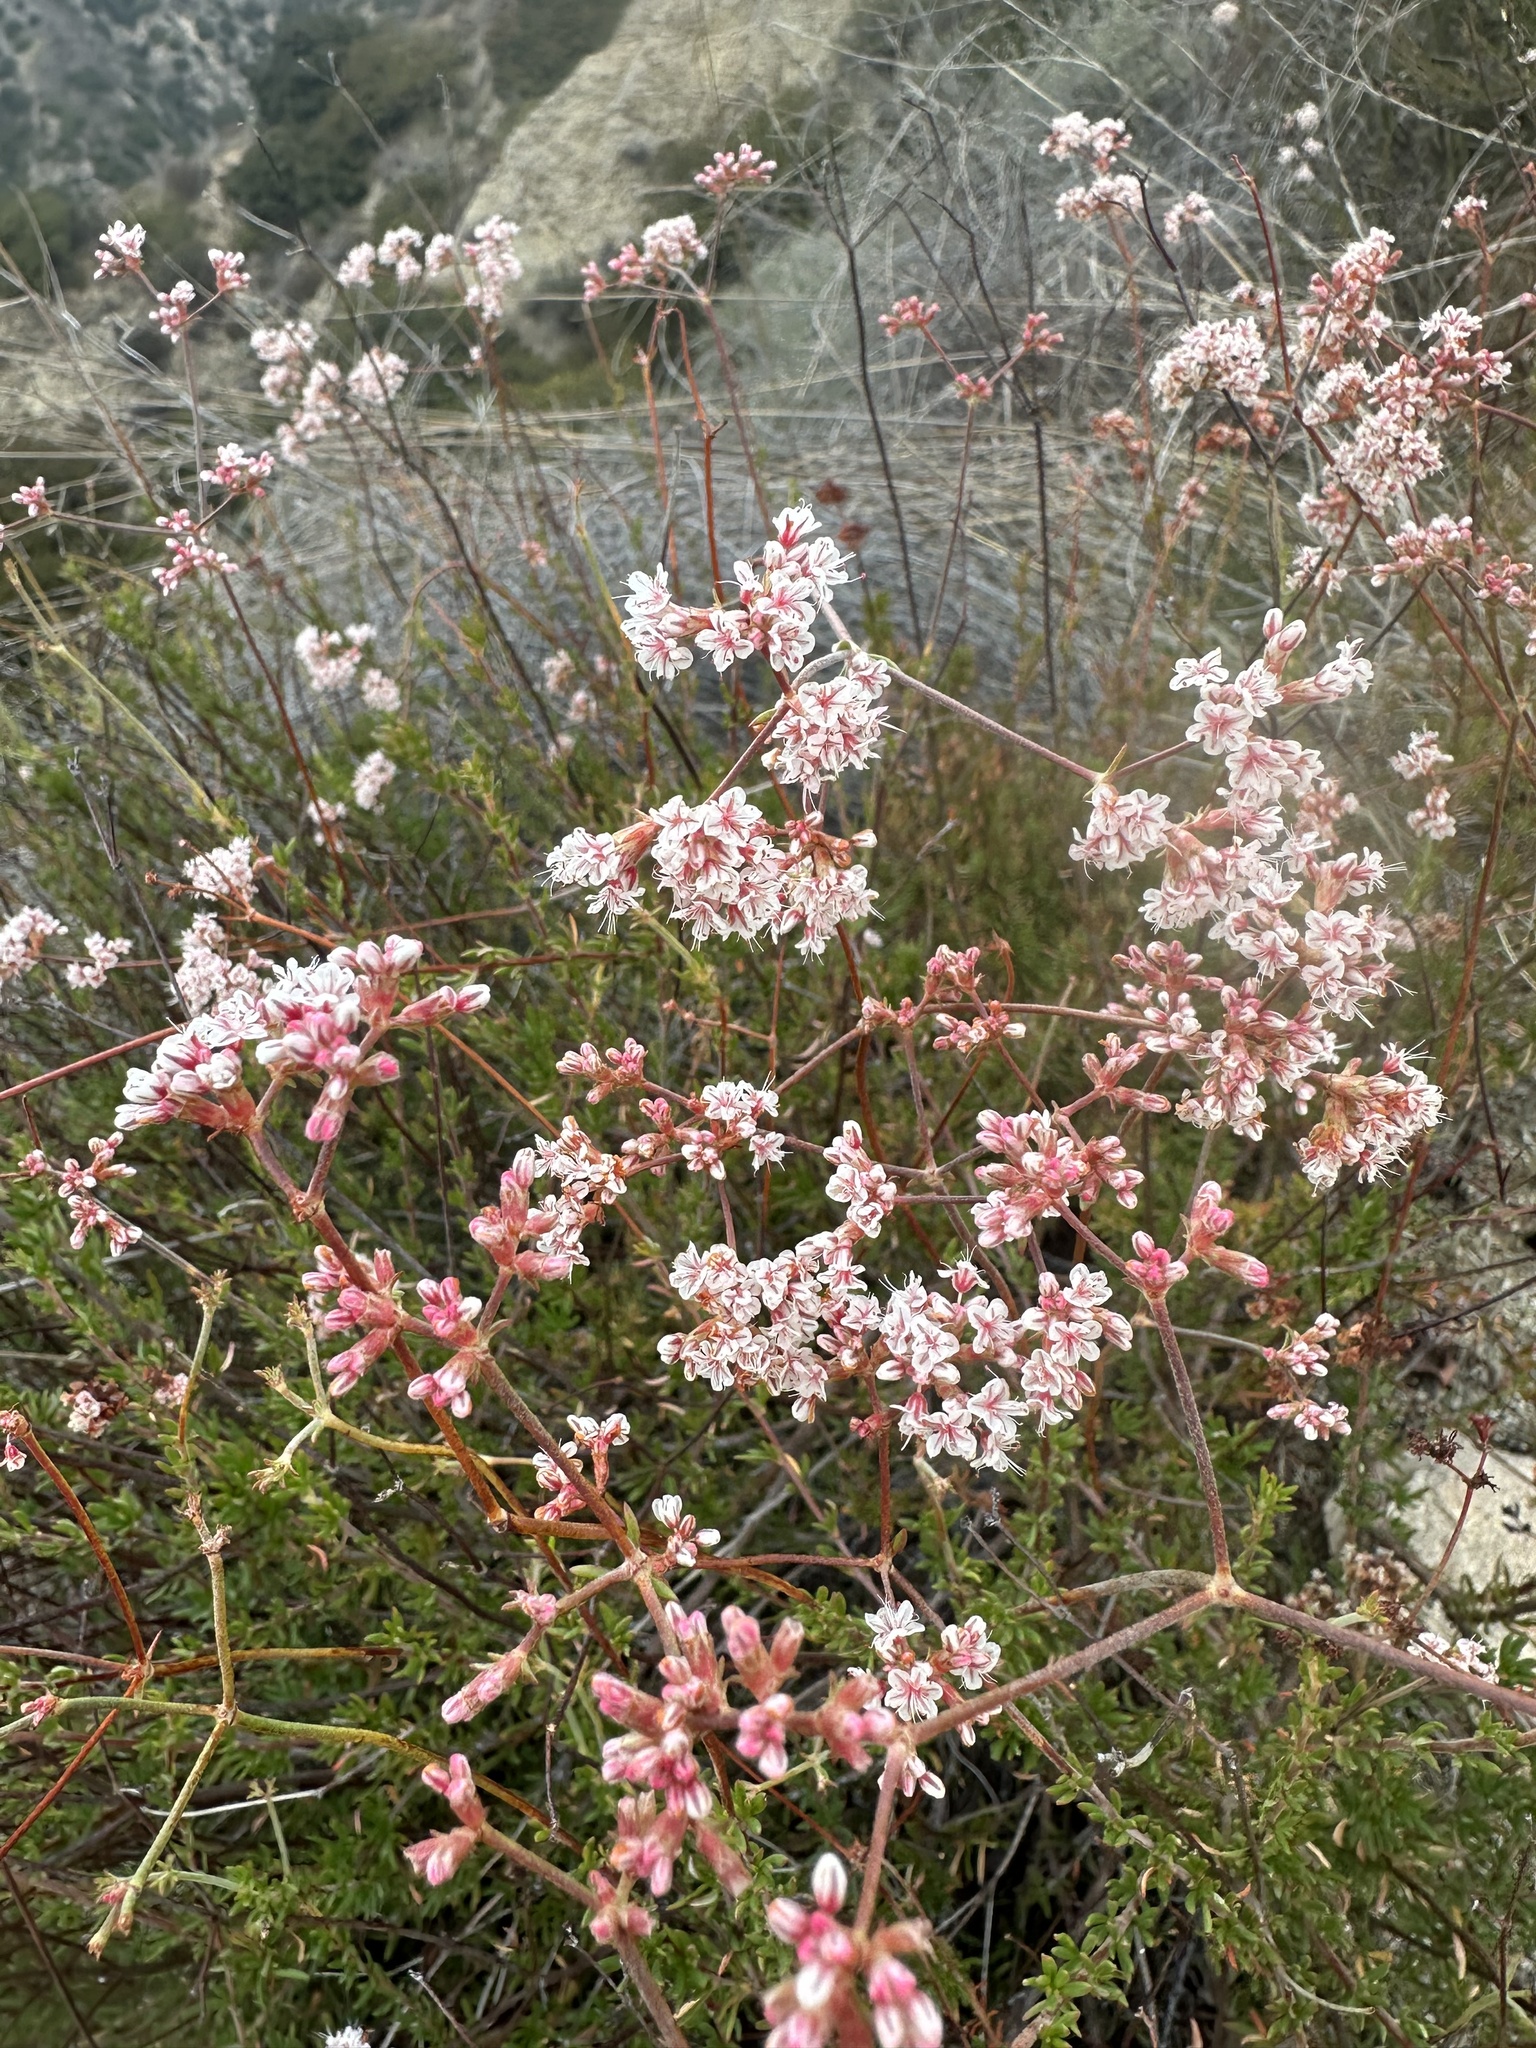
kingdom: Plantae
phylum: Tracheophyta
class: Magnoliopsida
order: Caryophyllales
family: Polygonaceae
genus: Eriogonum
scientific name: Eriogonum fasciculatum
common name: California wild buckwheat
